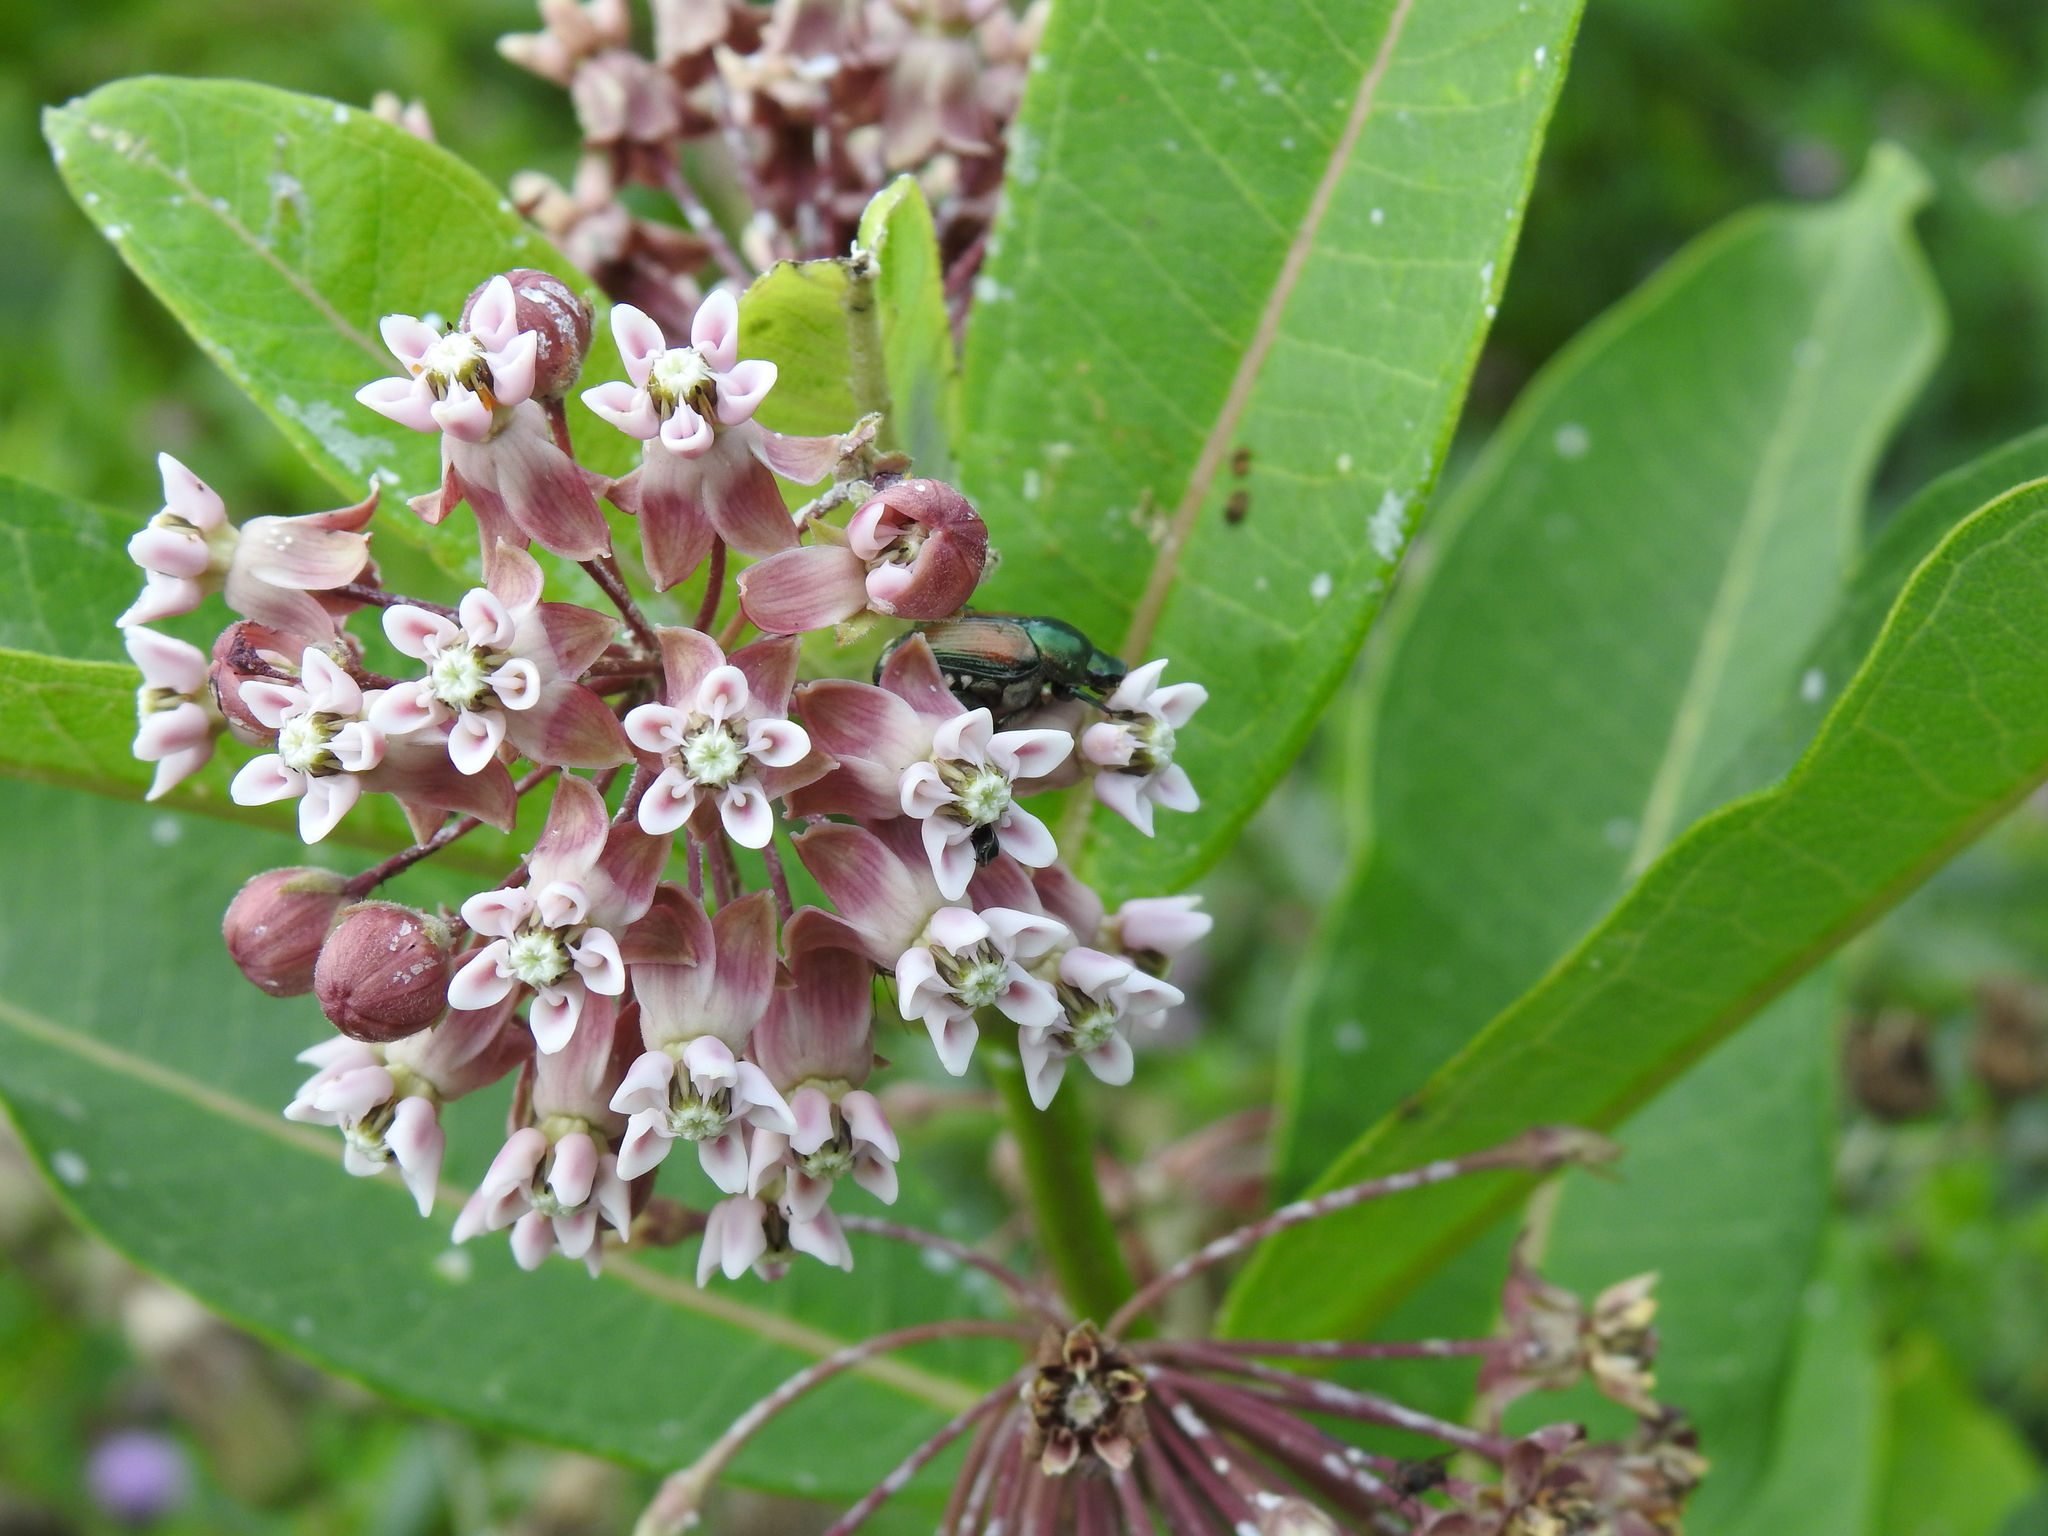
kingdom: Plantae
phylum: Tracheophyta
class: Magnoliopsida
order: Gentianales
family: Apocynaceae
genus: Asclepias
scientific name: Asclepias syriaca
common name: Common milkweed
